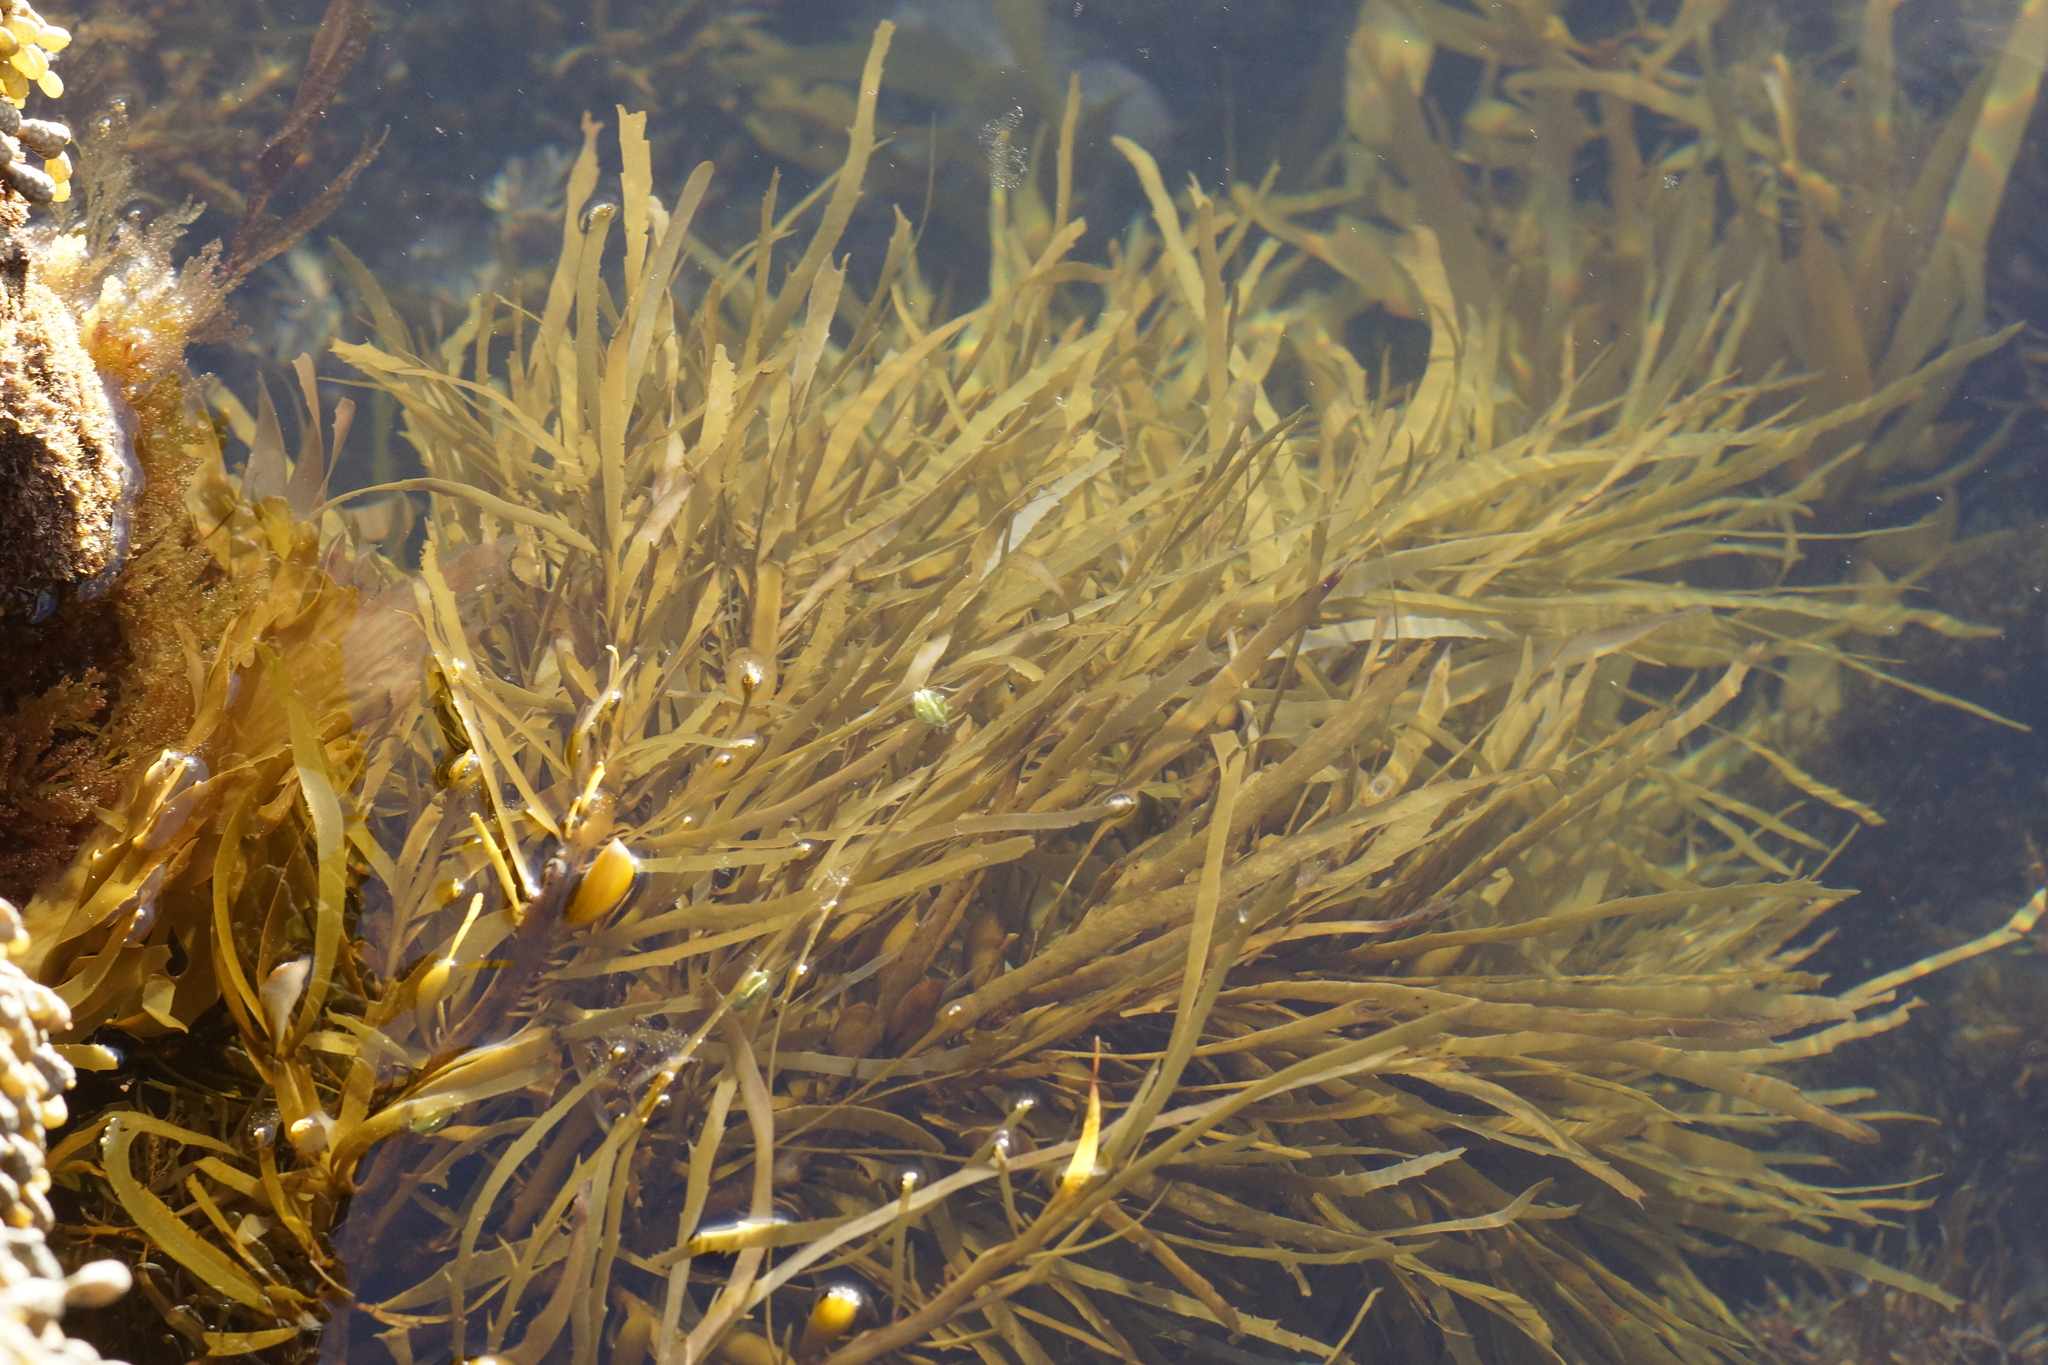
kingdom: Chromista
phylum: Ochrophyta
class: Phaeophyceae
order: Fucales
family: Seirococcaceae
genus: Phyllospora
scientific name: Phyllospora
